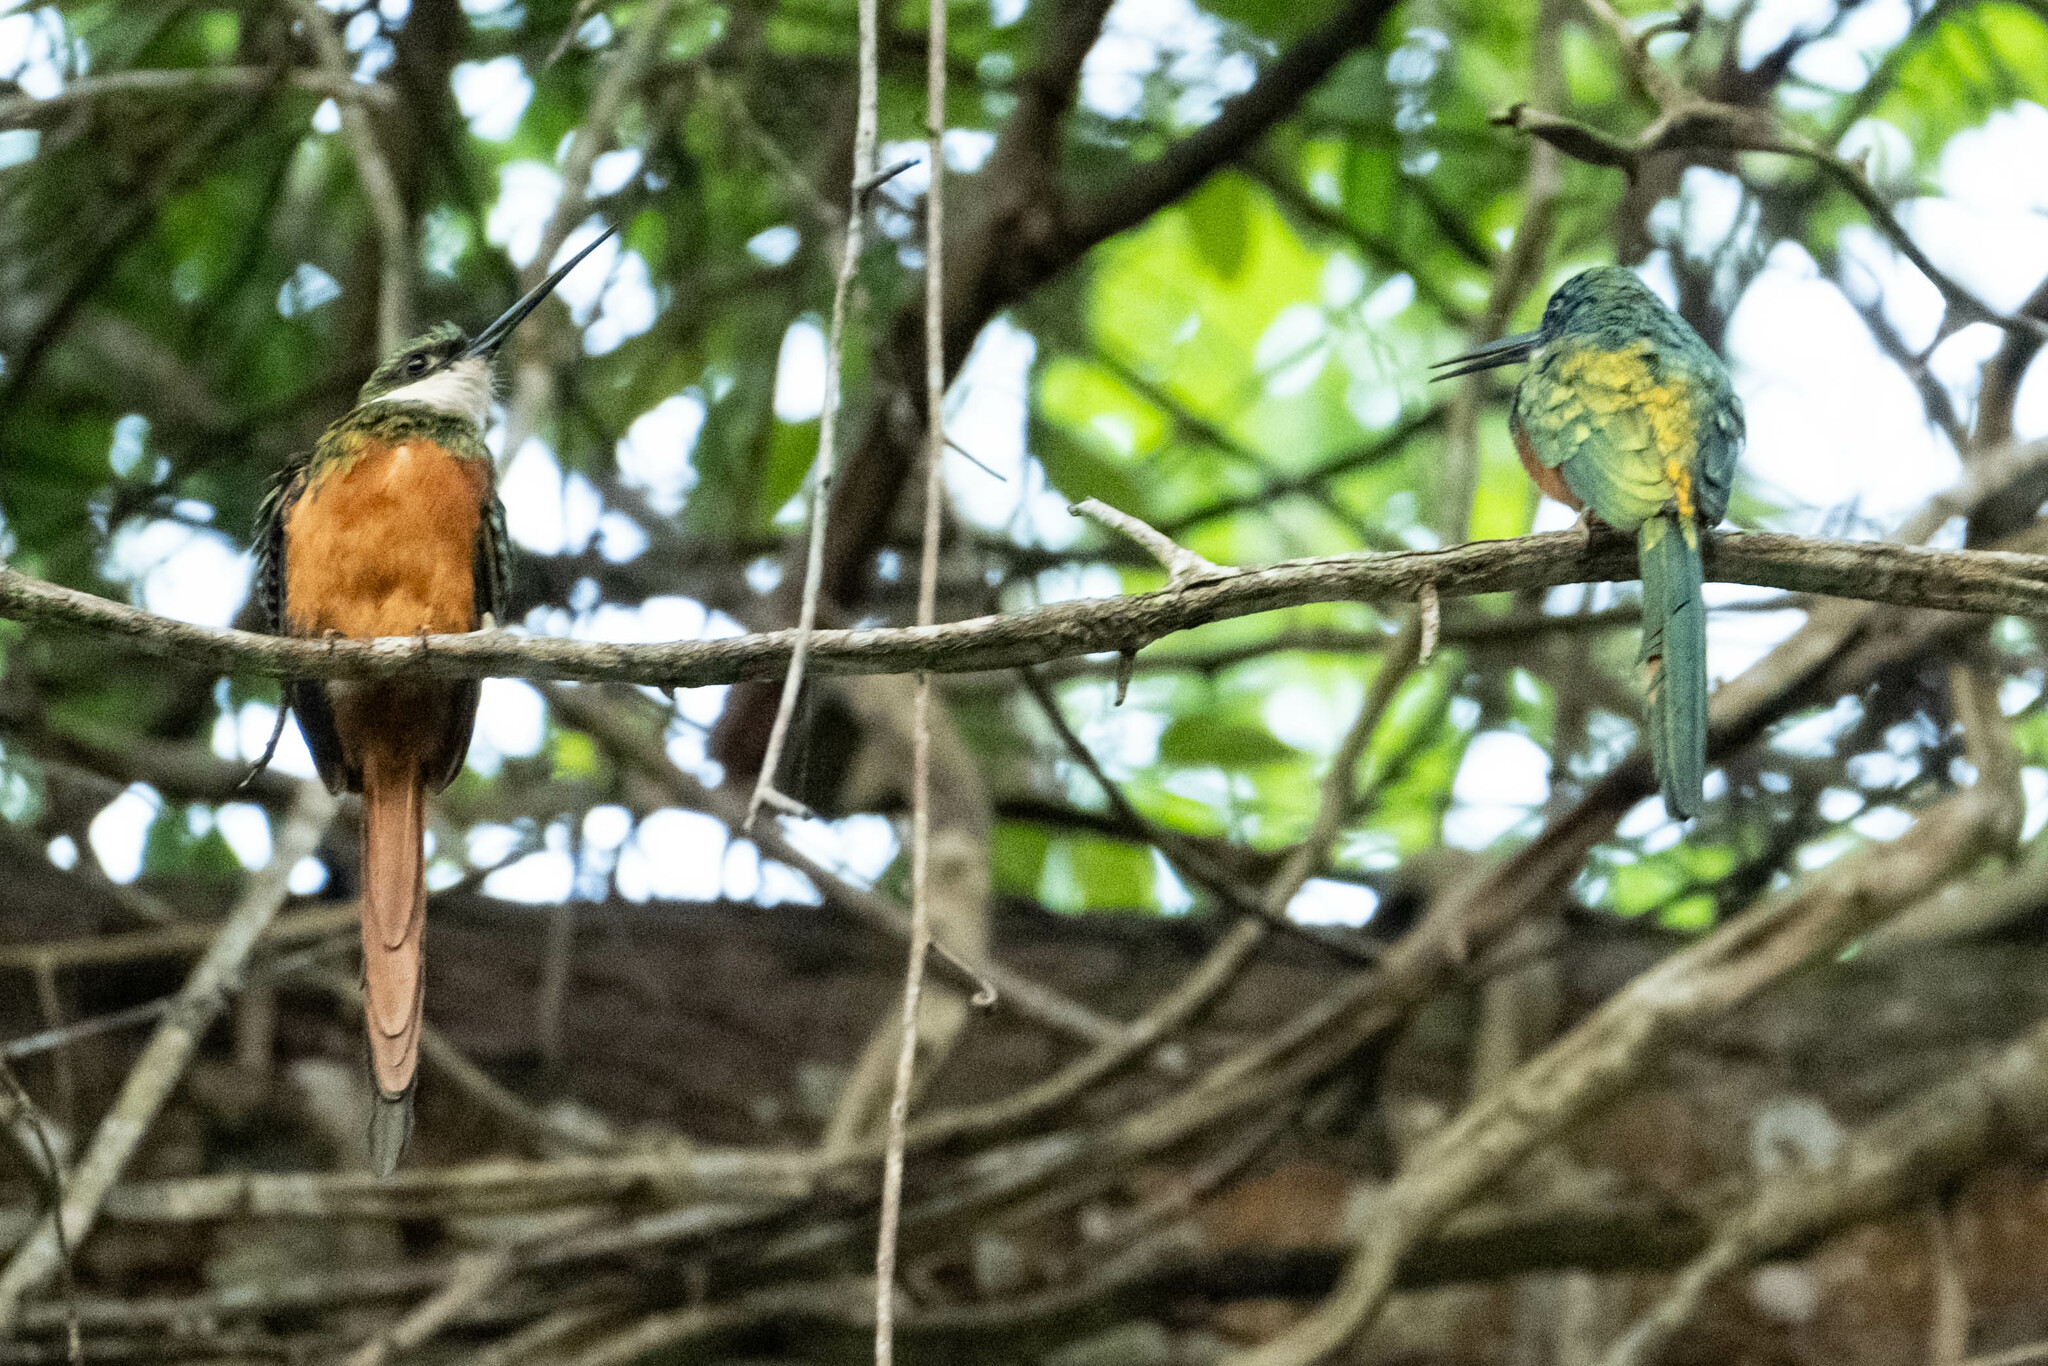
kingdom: Animalia
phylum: Chordata
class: Aves
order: Piciformes
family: Galbulidae
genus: Galbula
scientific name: Galbula ruficauda
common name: Rufous-tailed jacamar
